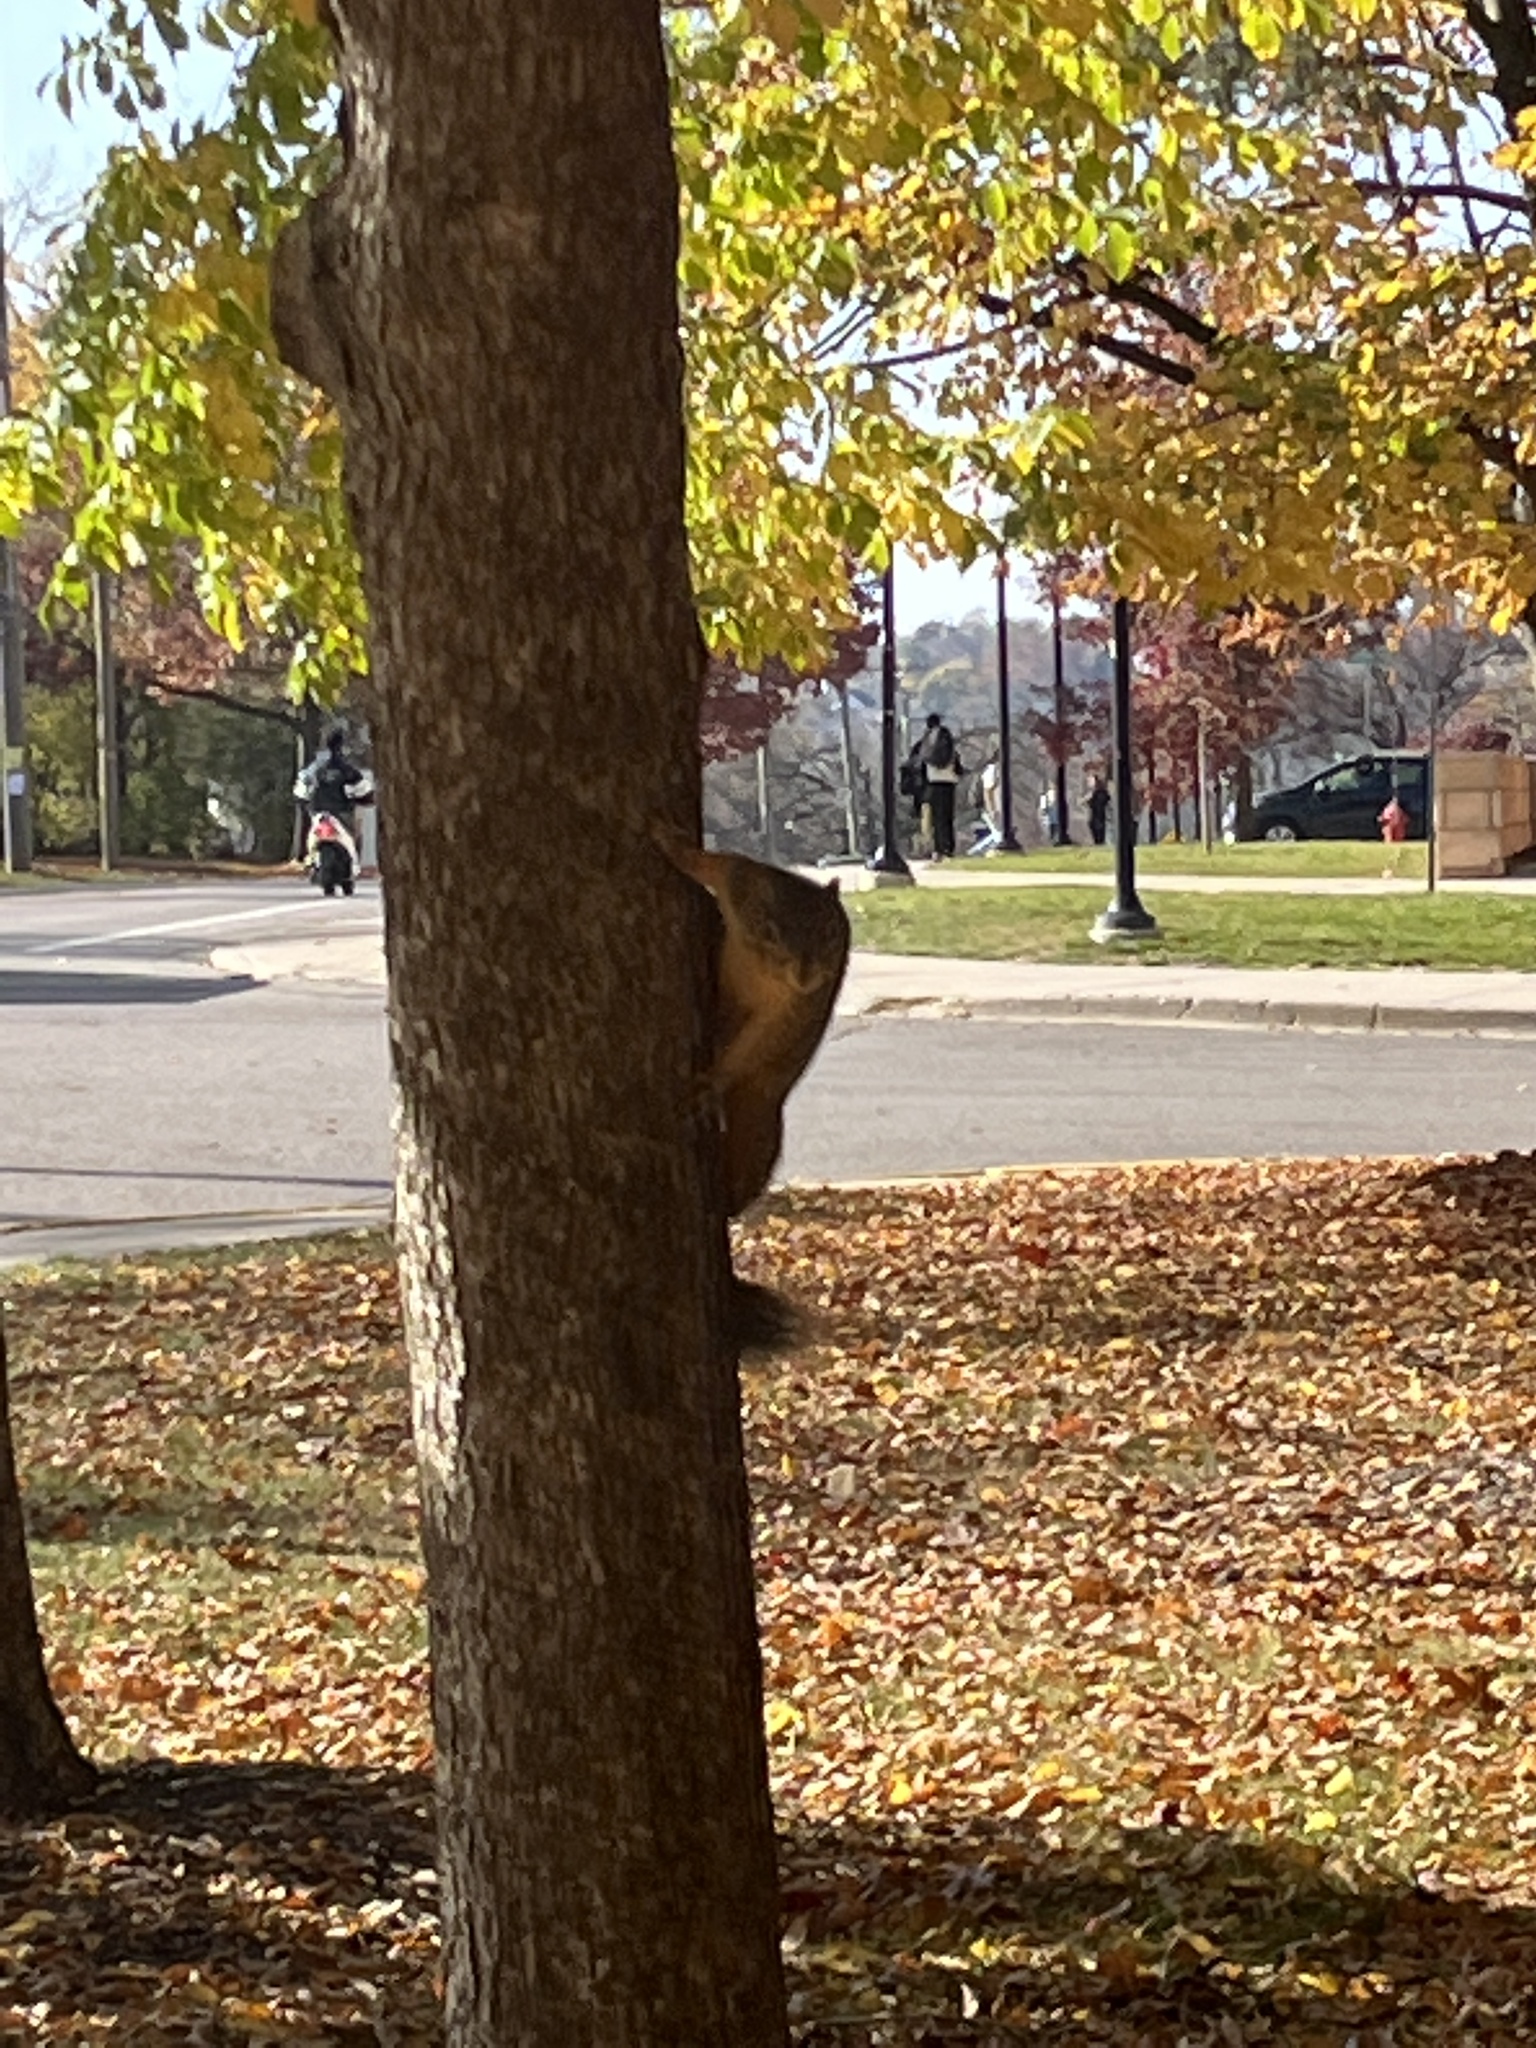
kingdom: Animalia
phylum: Chordata
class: Mammalia
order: Rodentia
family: Sciuridae
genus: Sciurus
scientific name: Sciurus niger
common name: Fox squirrel
